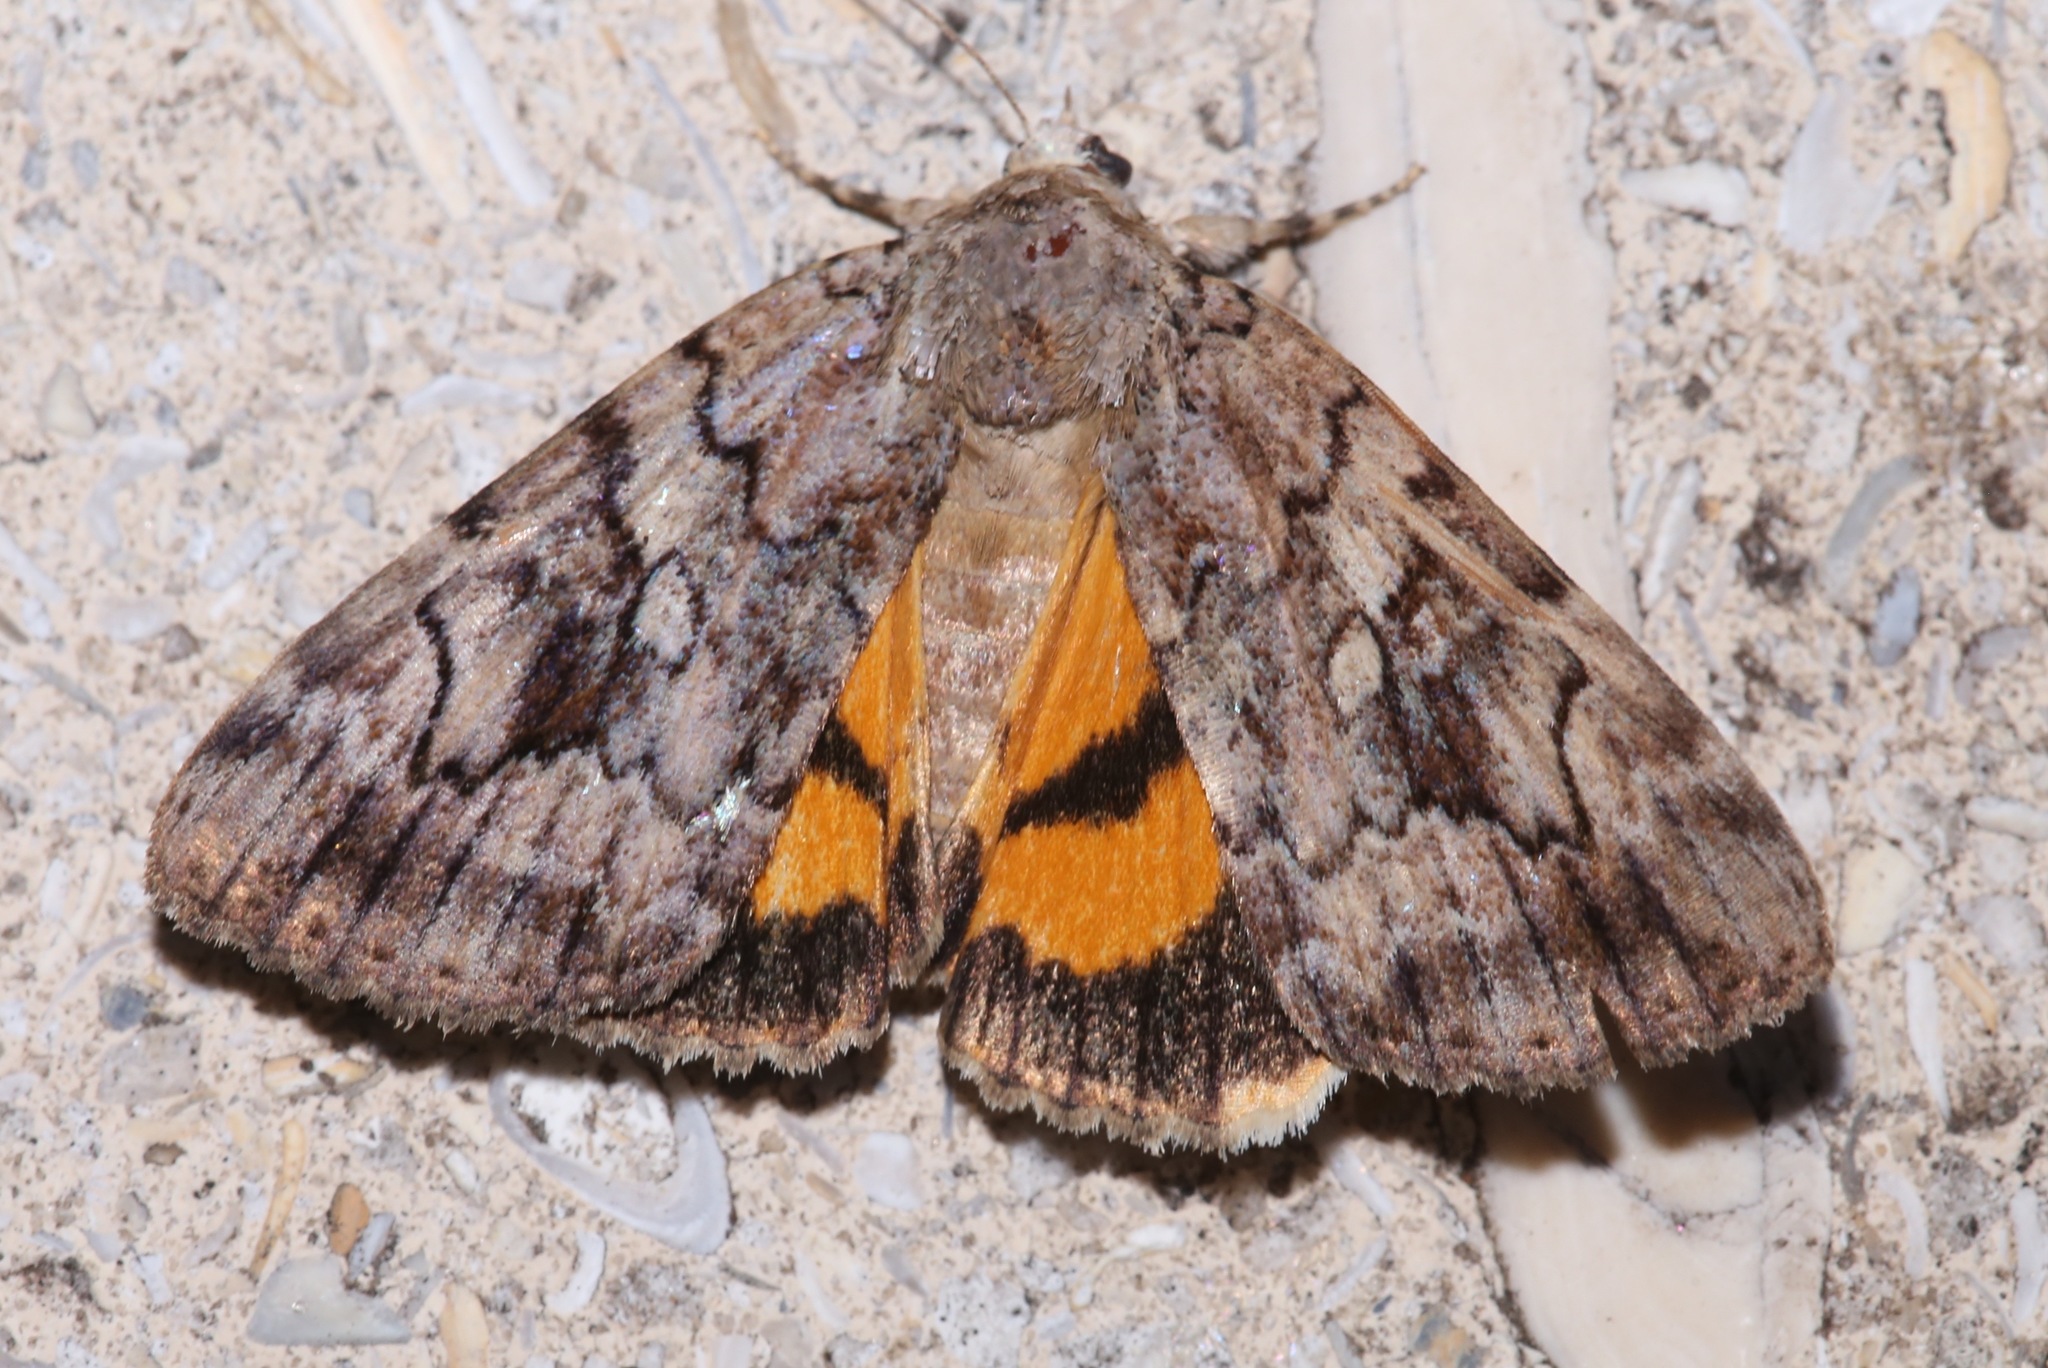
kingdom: Animalia
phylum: Arthropoda
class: Insecta
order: Lepidoptera
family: Erebidae
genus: Catocala
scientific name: Catocala similis
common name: Similar underwing
